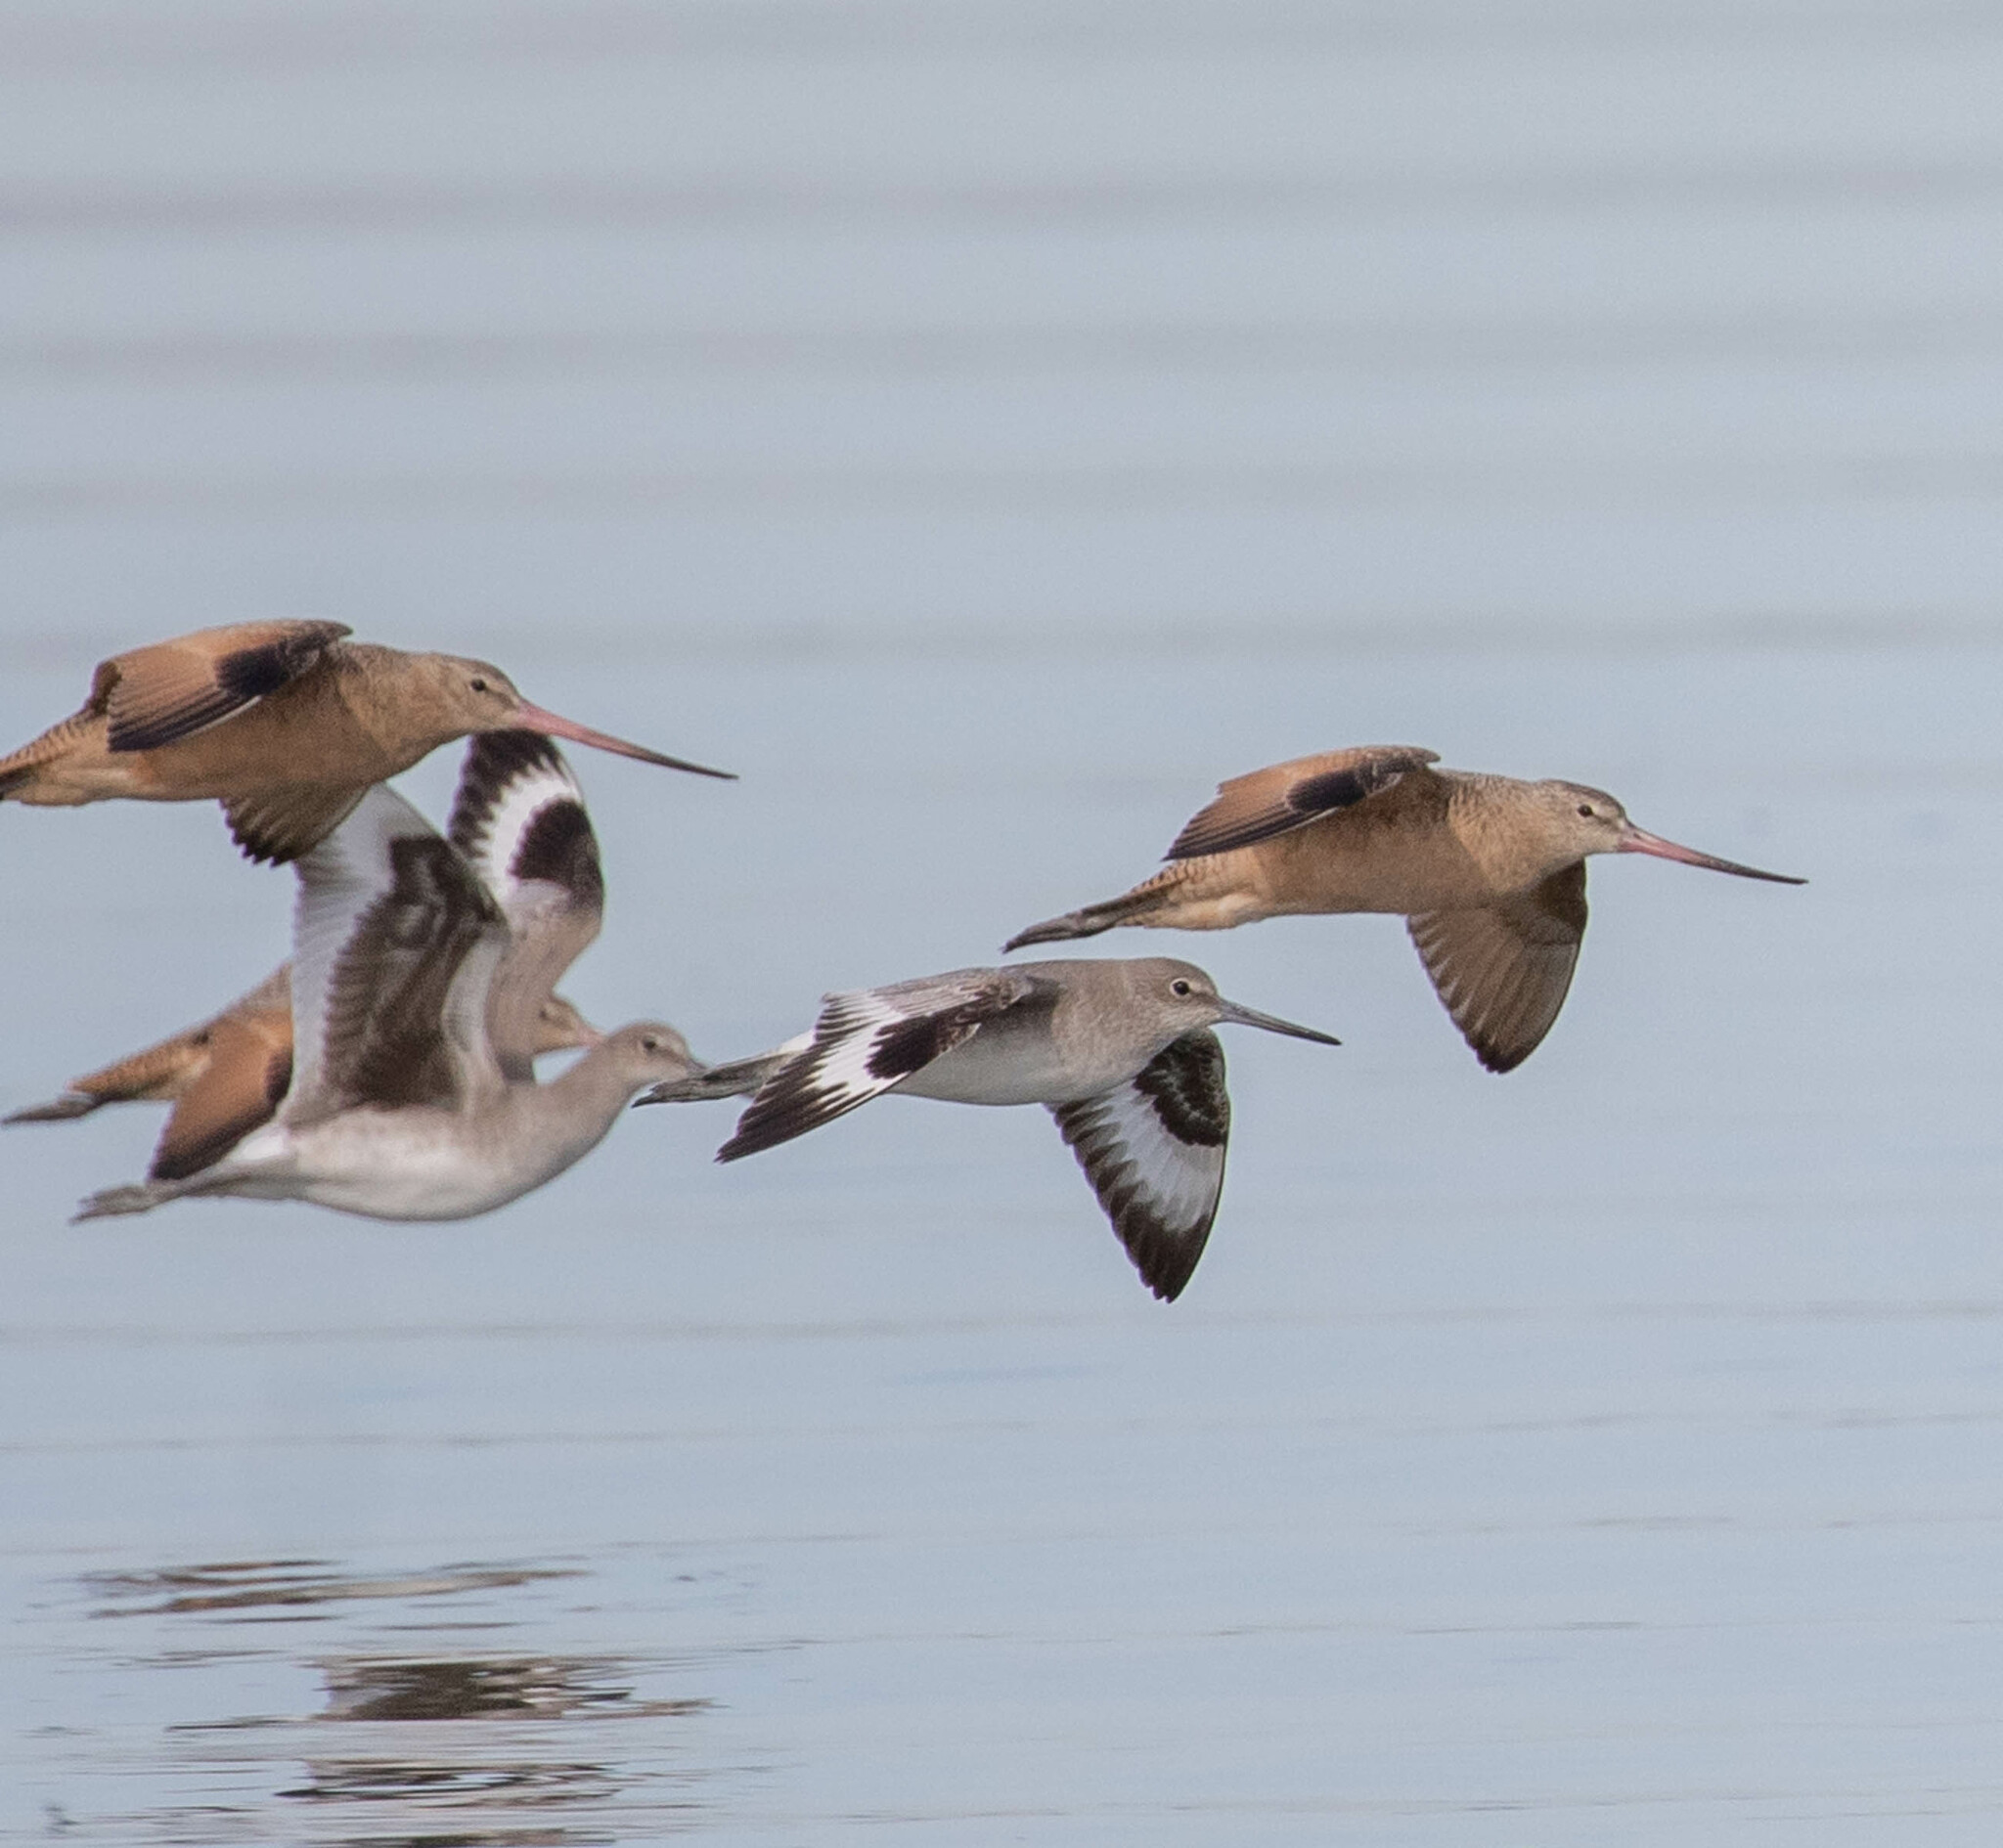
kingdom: Animalia
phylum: Chordata
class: Aves
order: Charadriiformes
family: Scolopacidae
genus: Tringa
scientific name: Tringa semipalmata
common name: Willet
